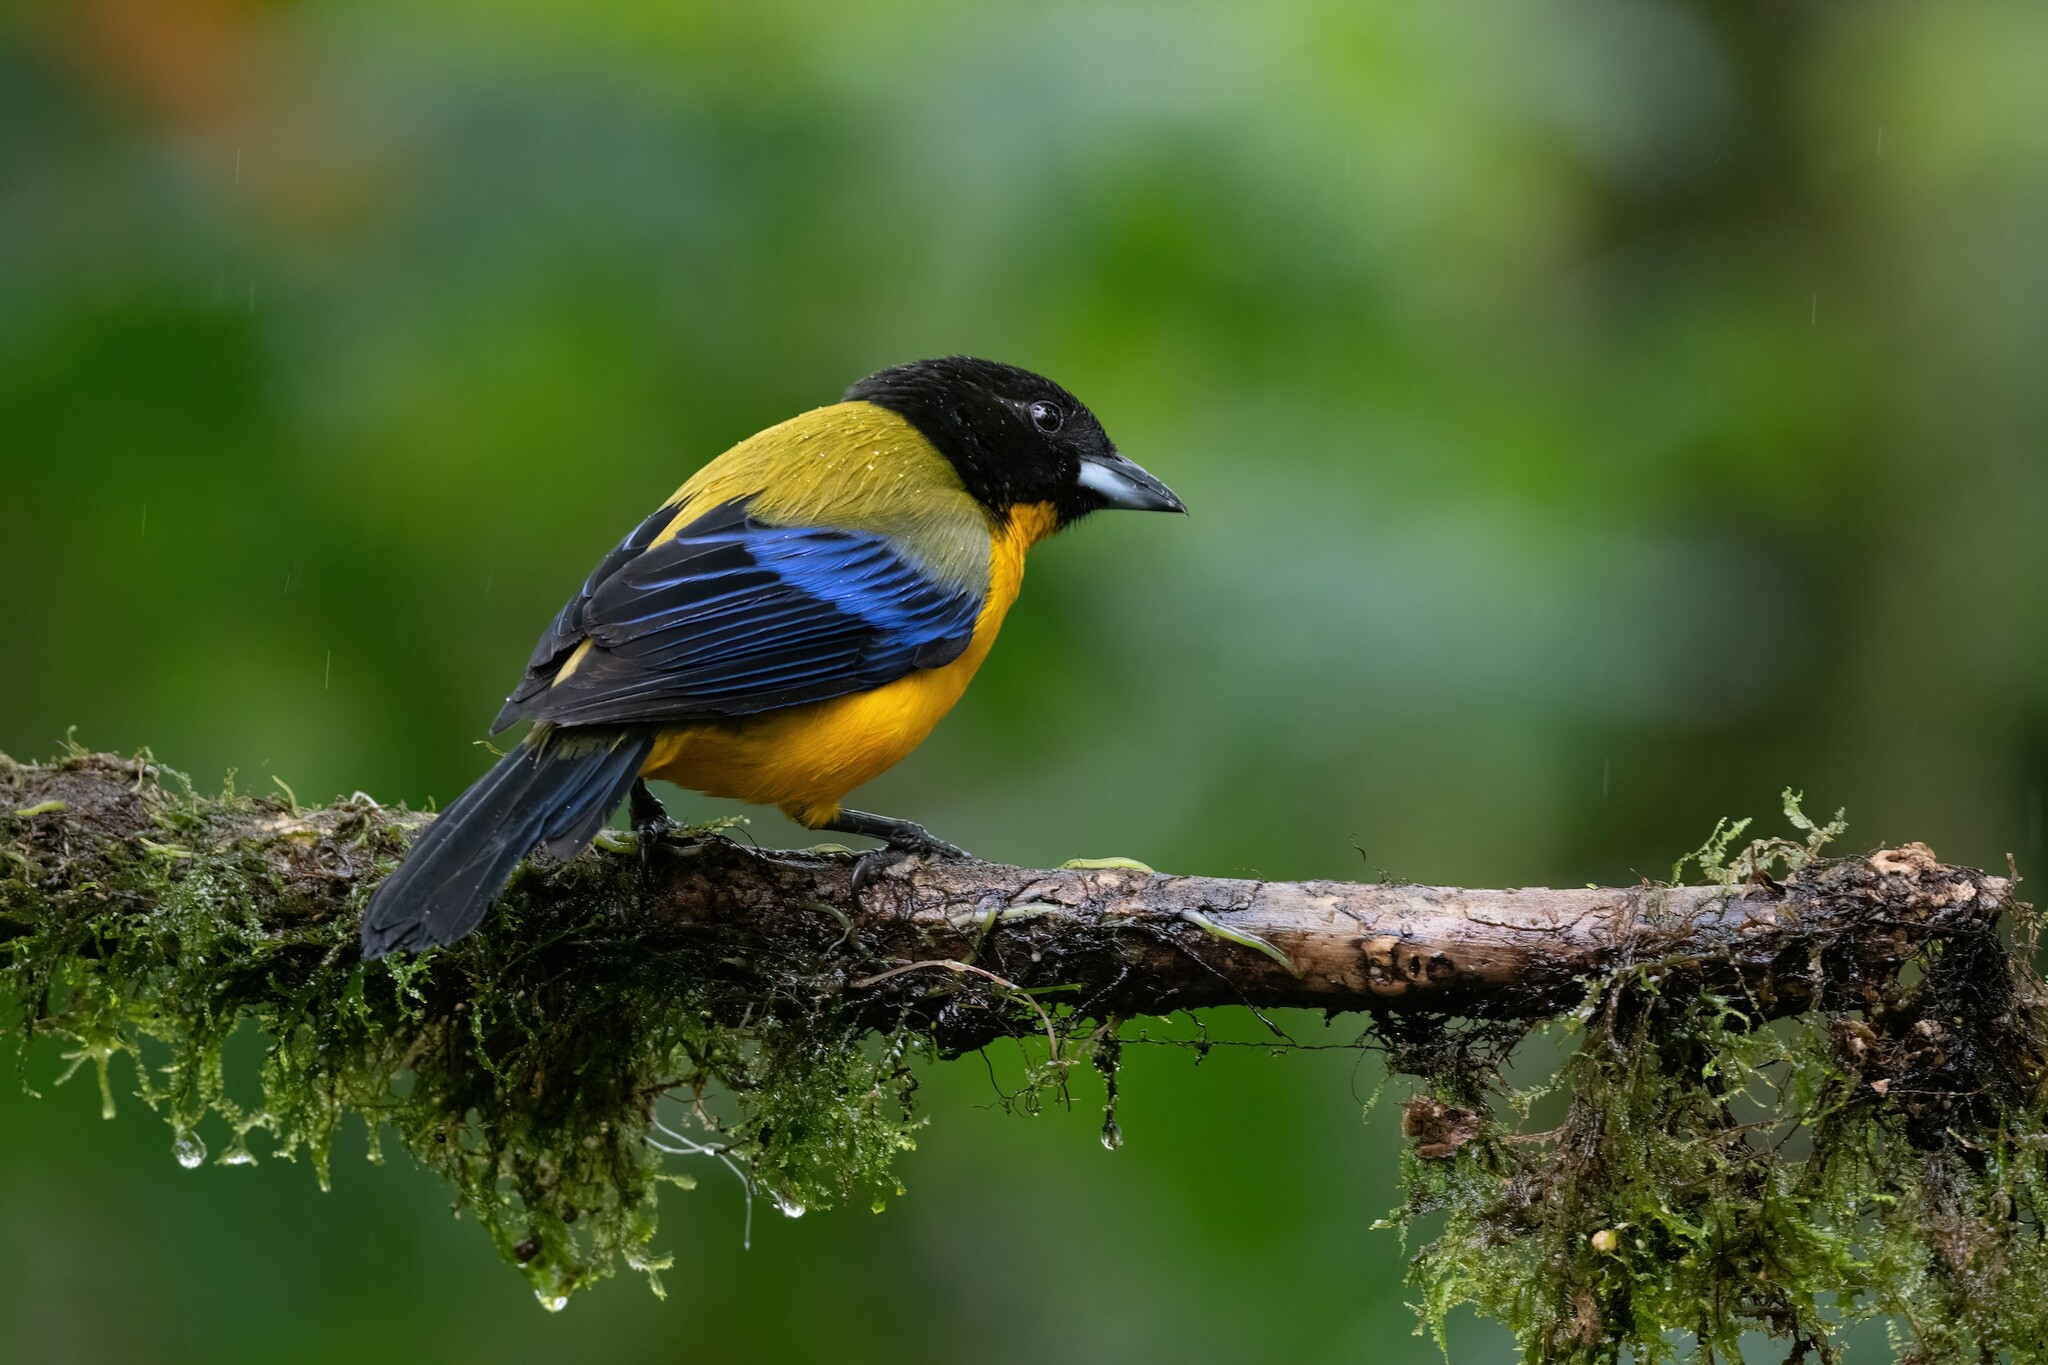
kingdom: Animalia
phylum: Chordata
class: Aves
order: Passeriformes
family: Thraupidae
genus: Anisognathus
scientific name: Anisognathus notabilis
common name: Black-chinned mountain tanager
